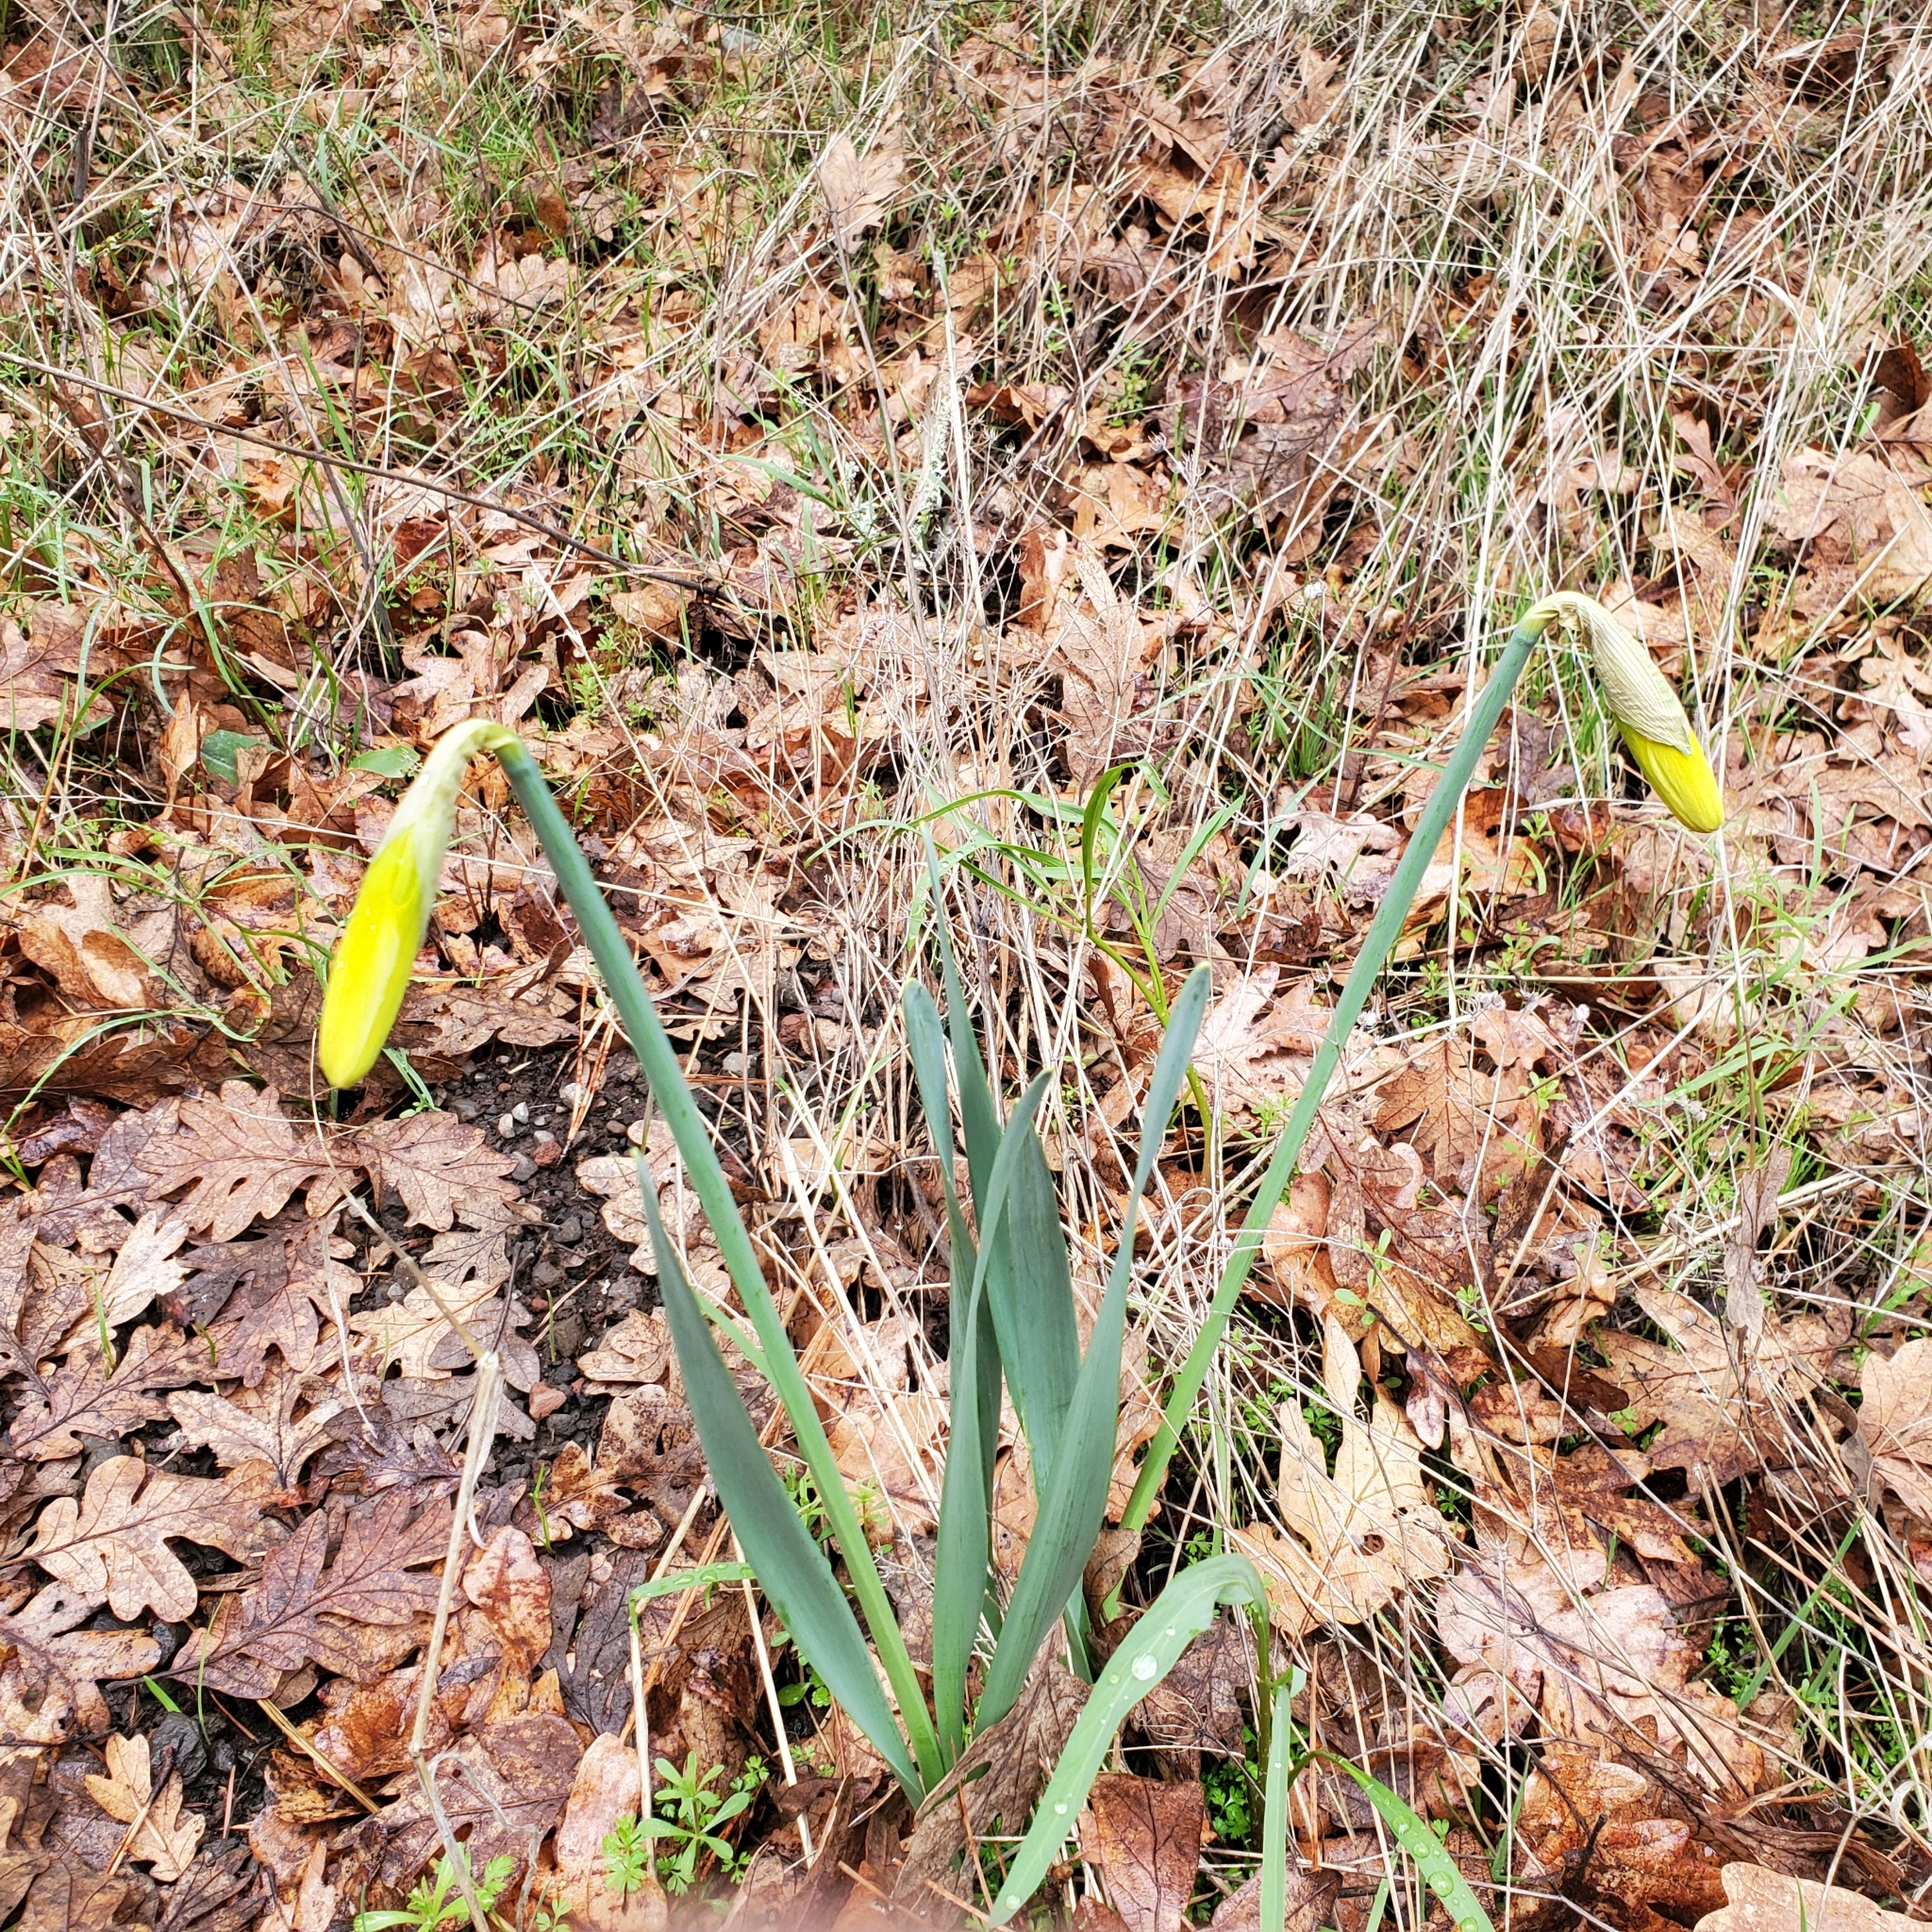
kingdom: Plantae
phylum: Tracheophyta
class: Liliopsida
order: Asparagales
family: Amaryllidaceae
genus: Narcissus
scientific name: Narcissus pseudonarcissus
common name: Daffodil
